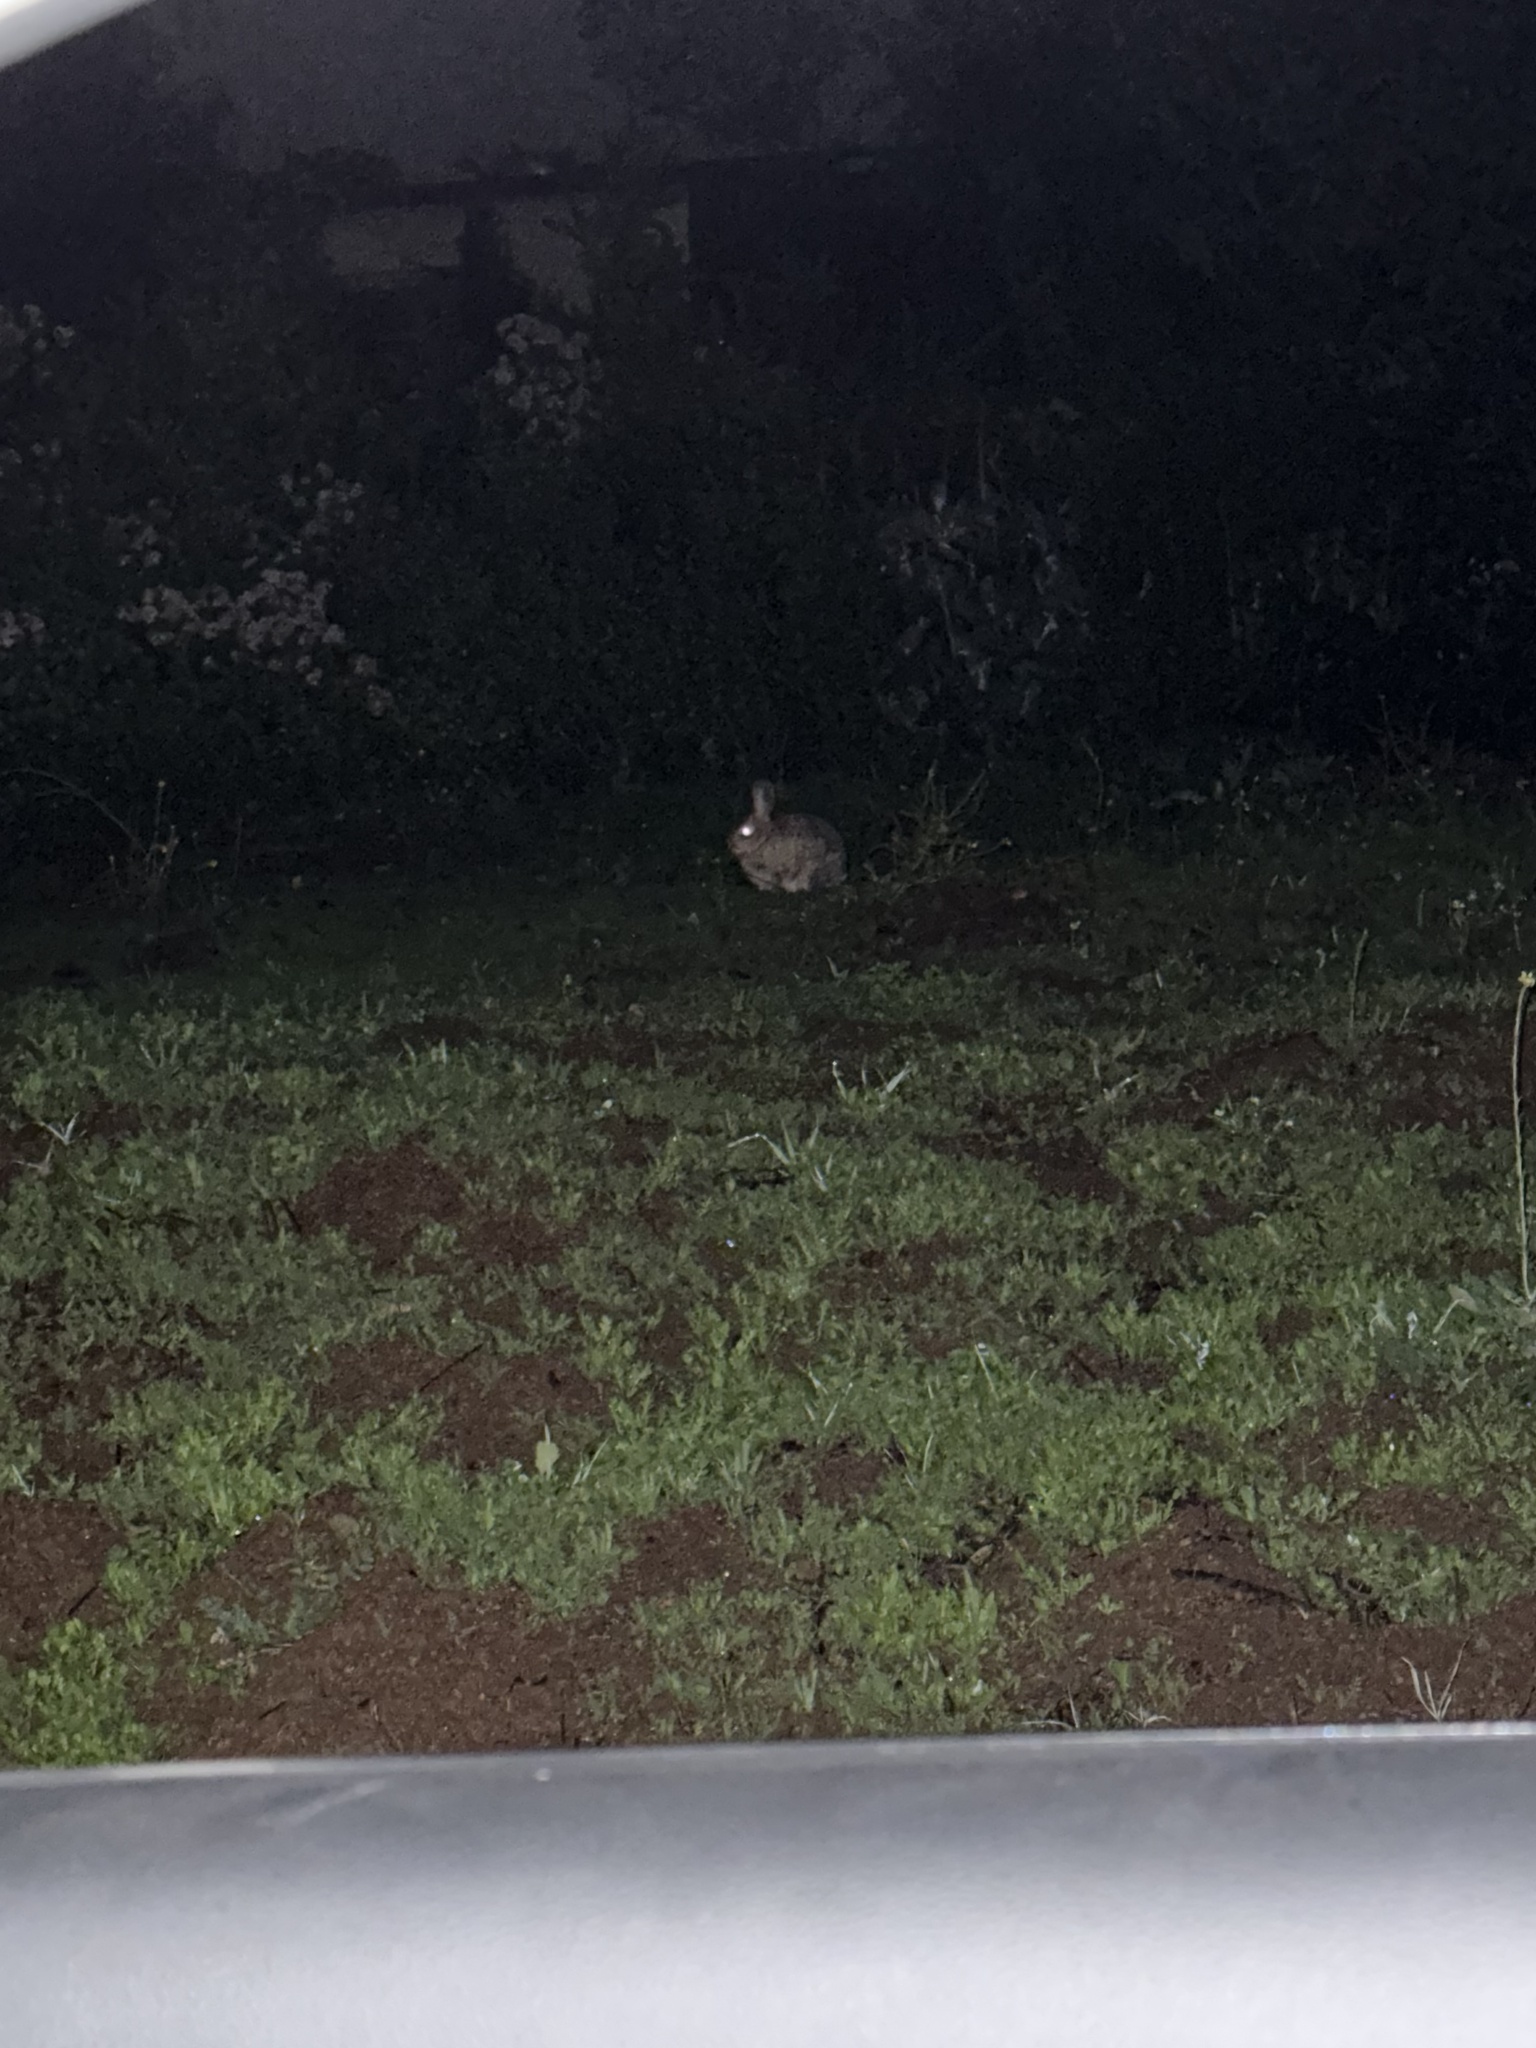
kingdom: Animalia
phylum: Chordata
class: Mammalia
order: Lagomorpha
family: Leporidae
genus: Sylvilagus
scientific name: Sylvilagus audubonii
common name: Desert cottontail
